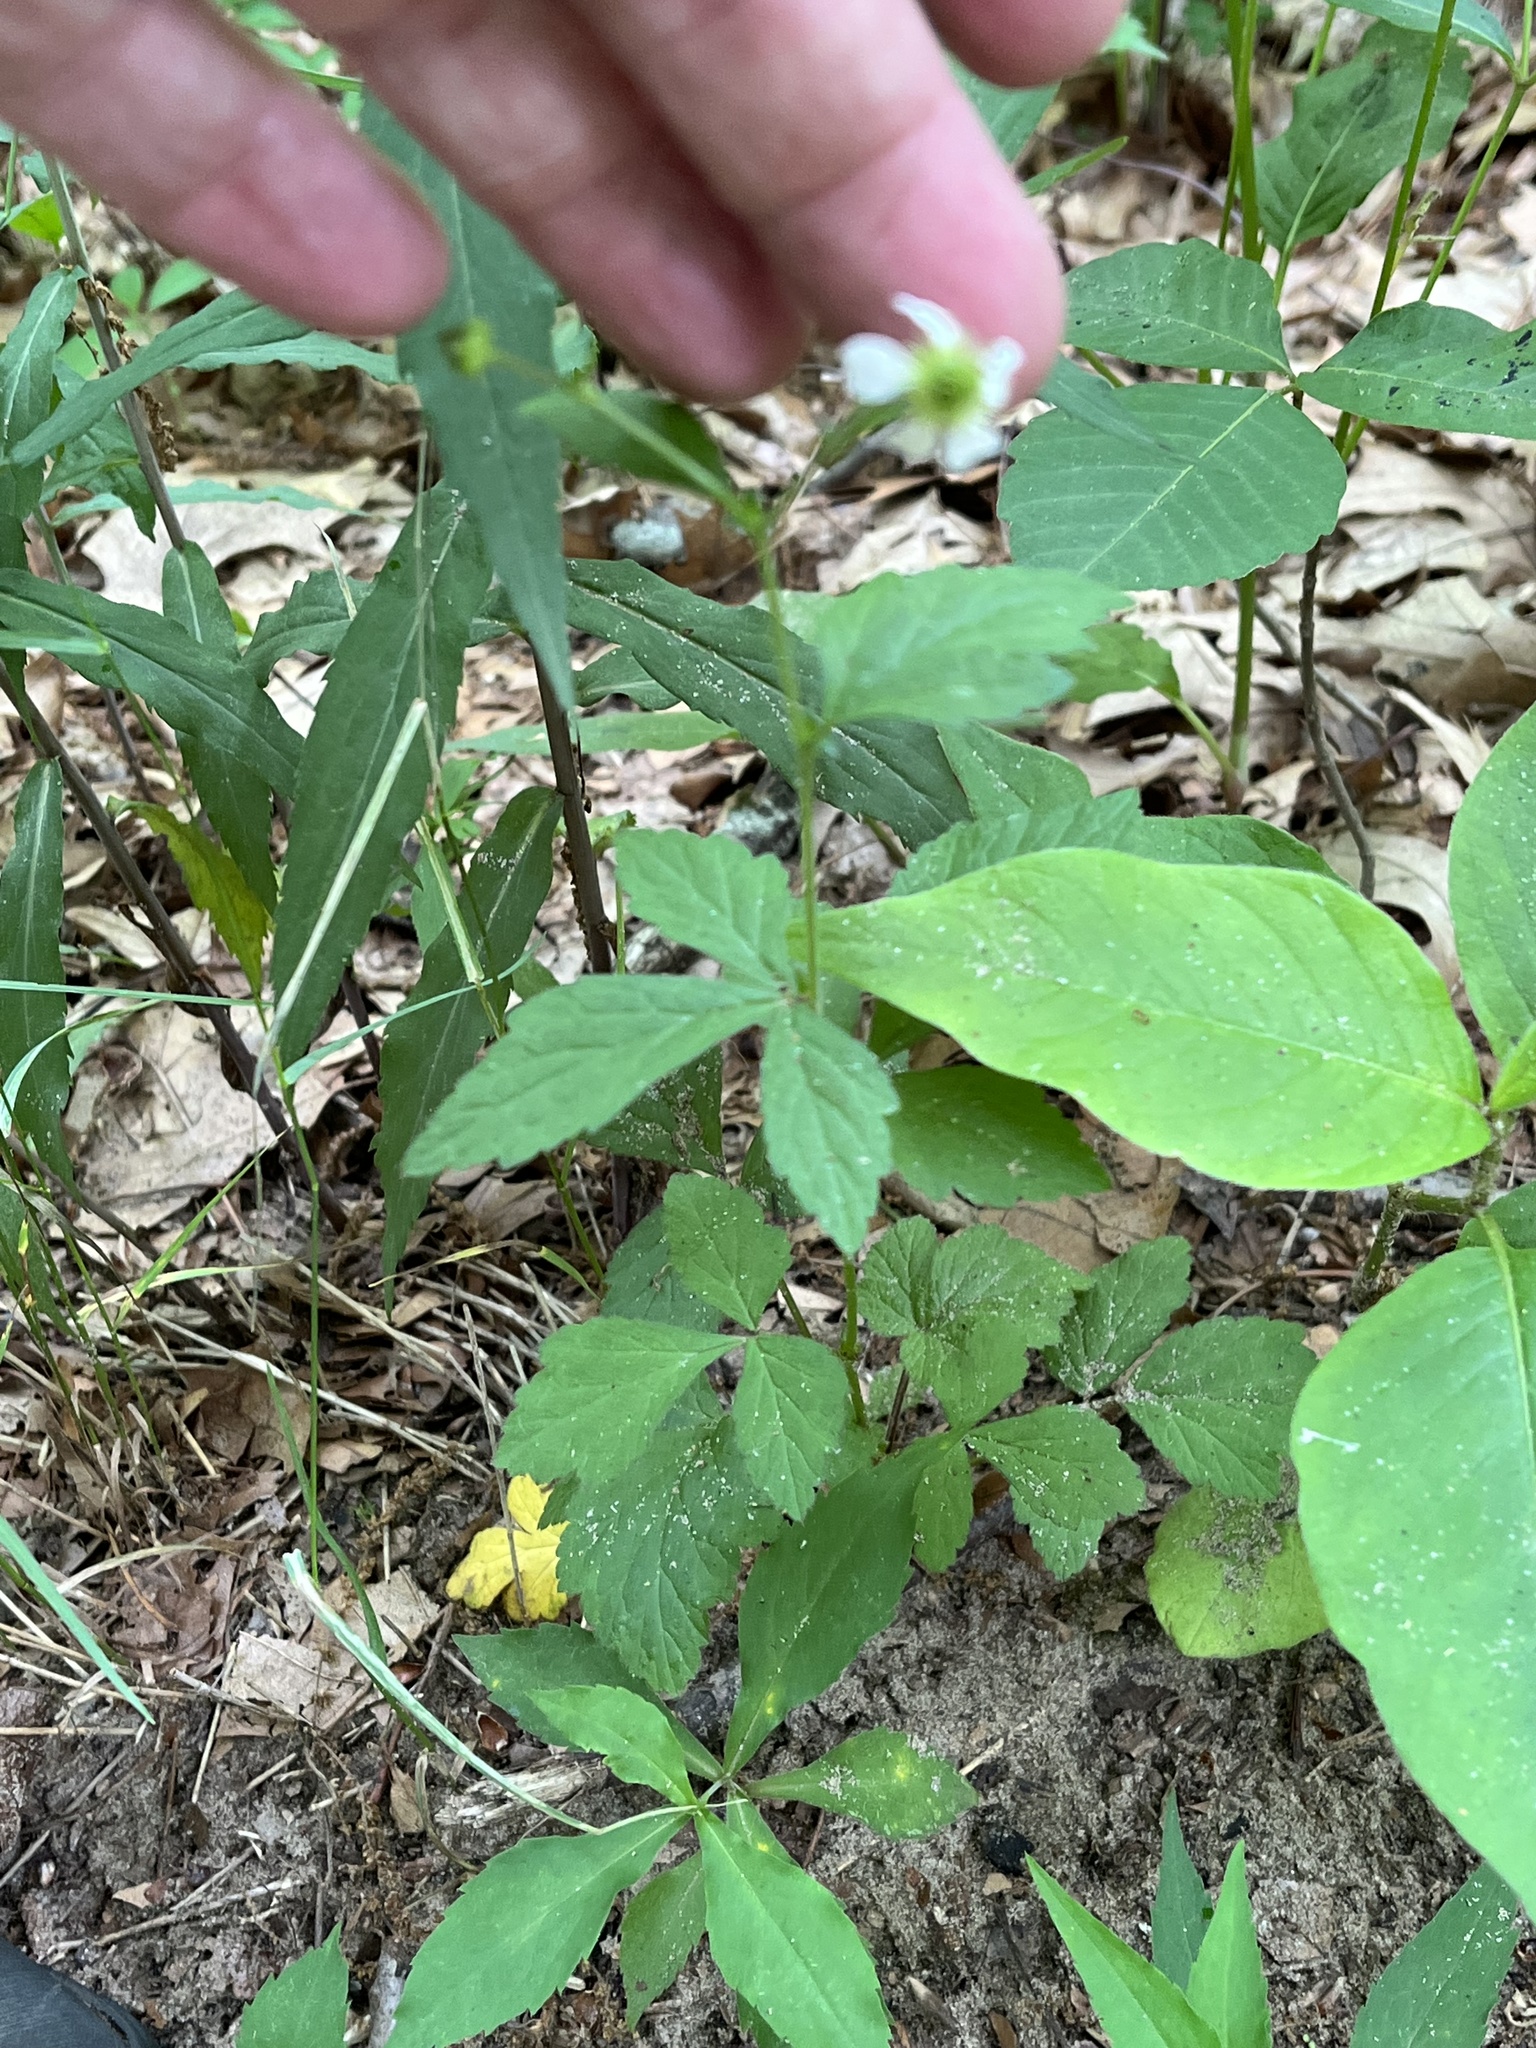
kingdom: Plantae
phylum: Tracheophyta
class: Magnoliopsida
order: Rosales
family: Rosaceae
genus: Geum
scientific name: Geum canadense
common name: White avens
